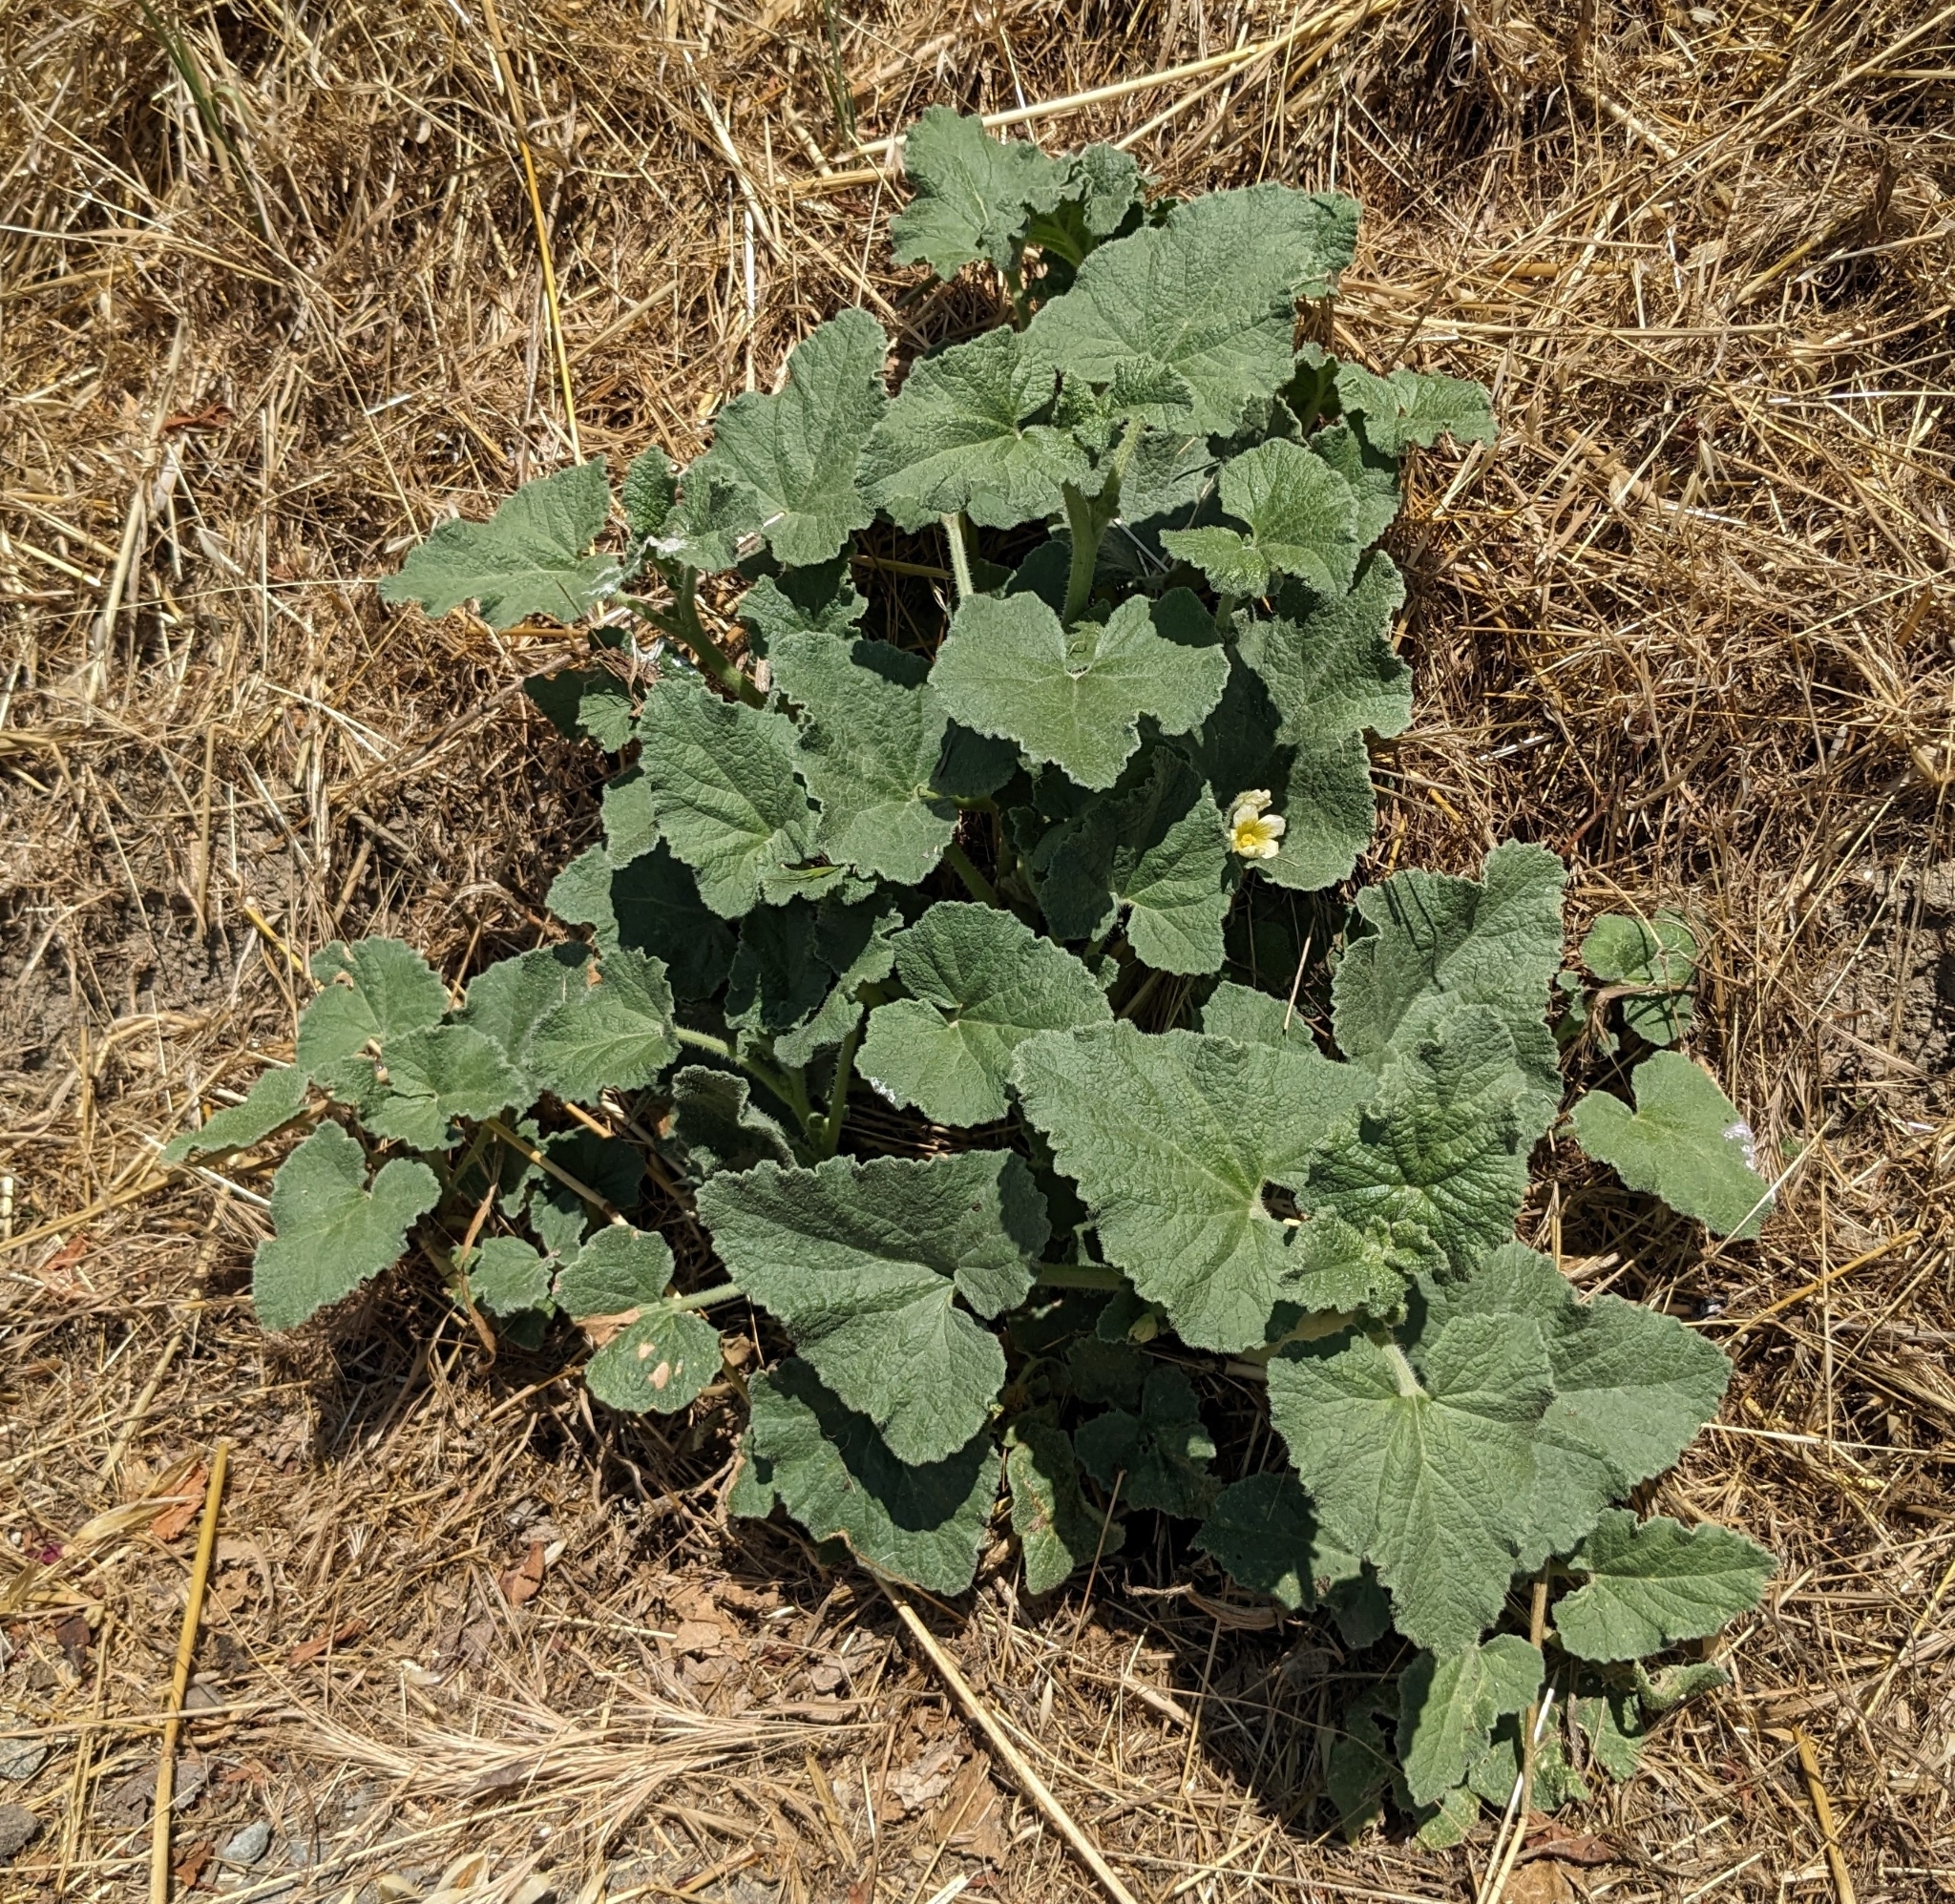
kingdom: Plantae
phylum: Tracheophyta
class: Magnoliopsida
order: Cucurbitales
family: Cucurbitaceae
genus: Ecballium
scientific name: Ecballium elaterium
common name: Squirting cucumber
